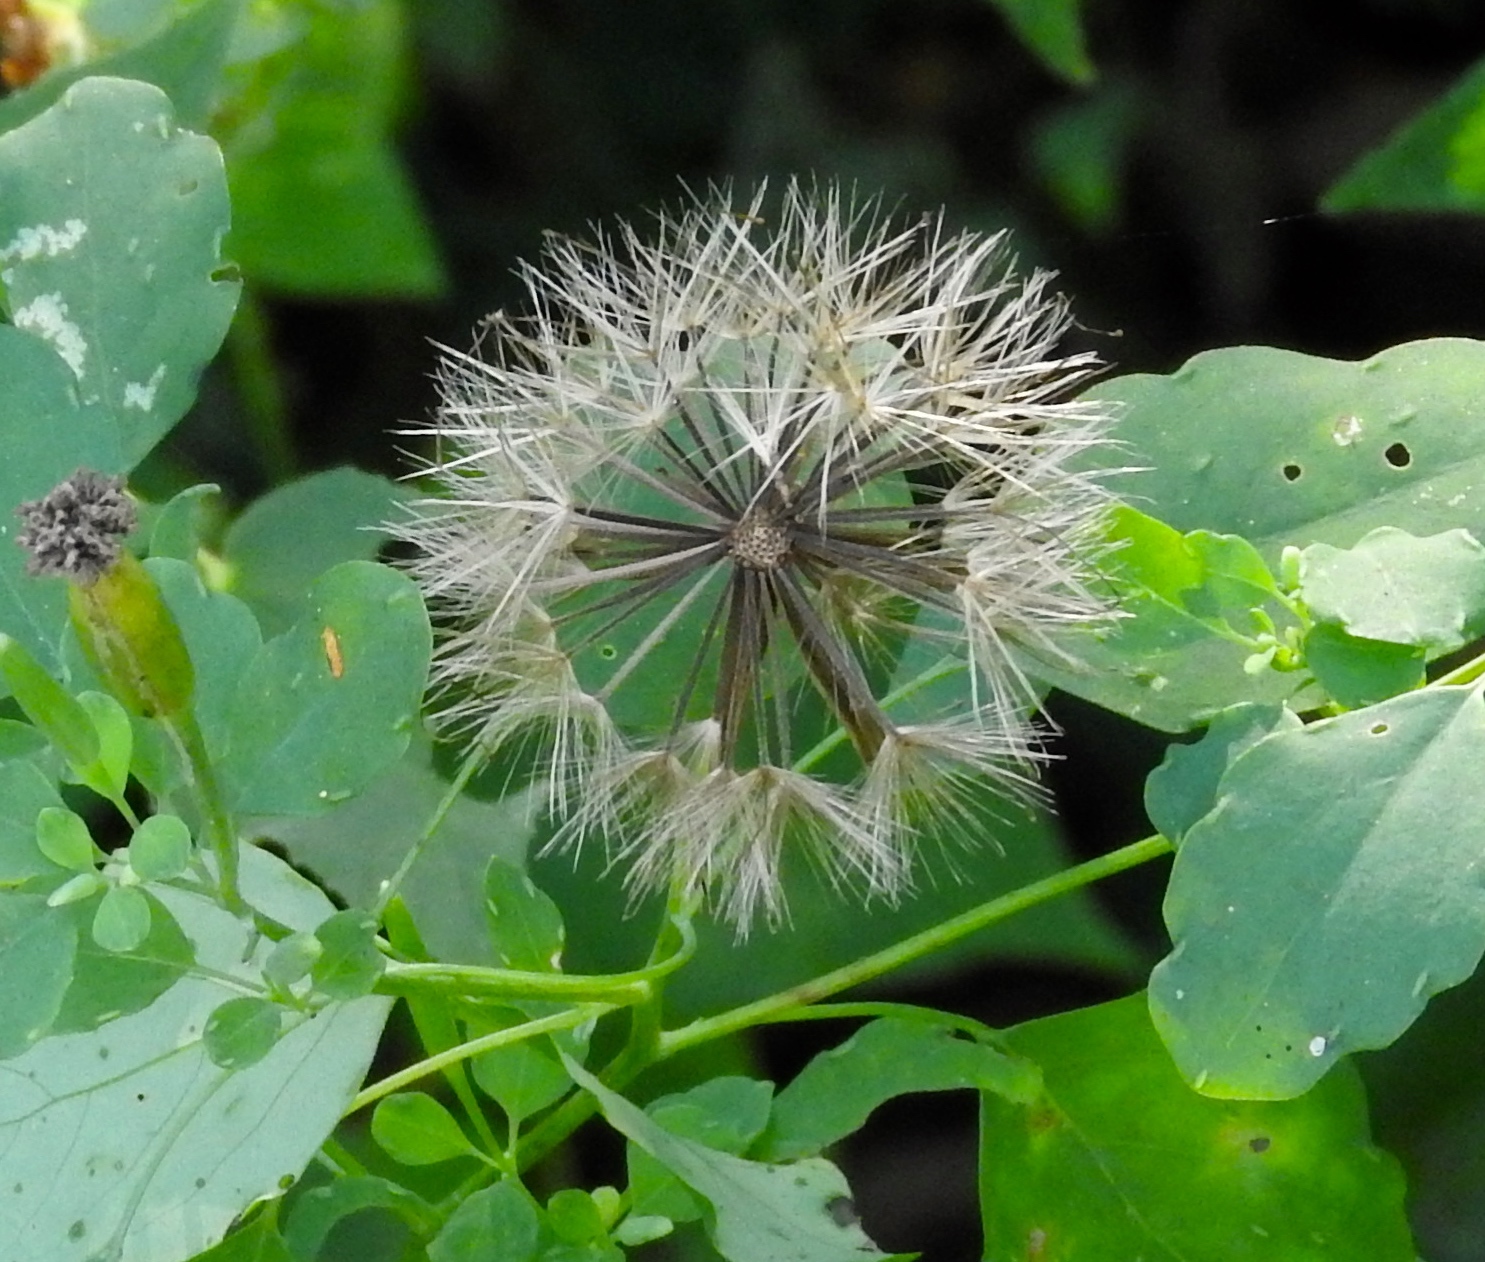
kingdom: Plantae
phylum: Tracheophyta
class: Magnoliopsida
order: Asterales
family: Asteraceae
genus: Porophyllum
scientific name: Porophyllum ruderale
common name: Yerba porosa
